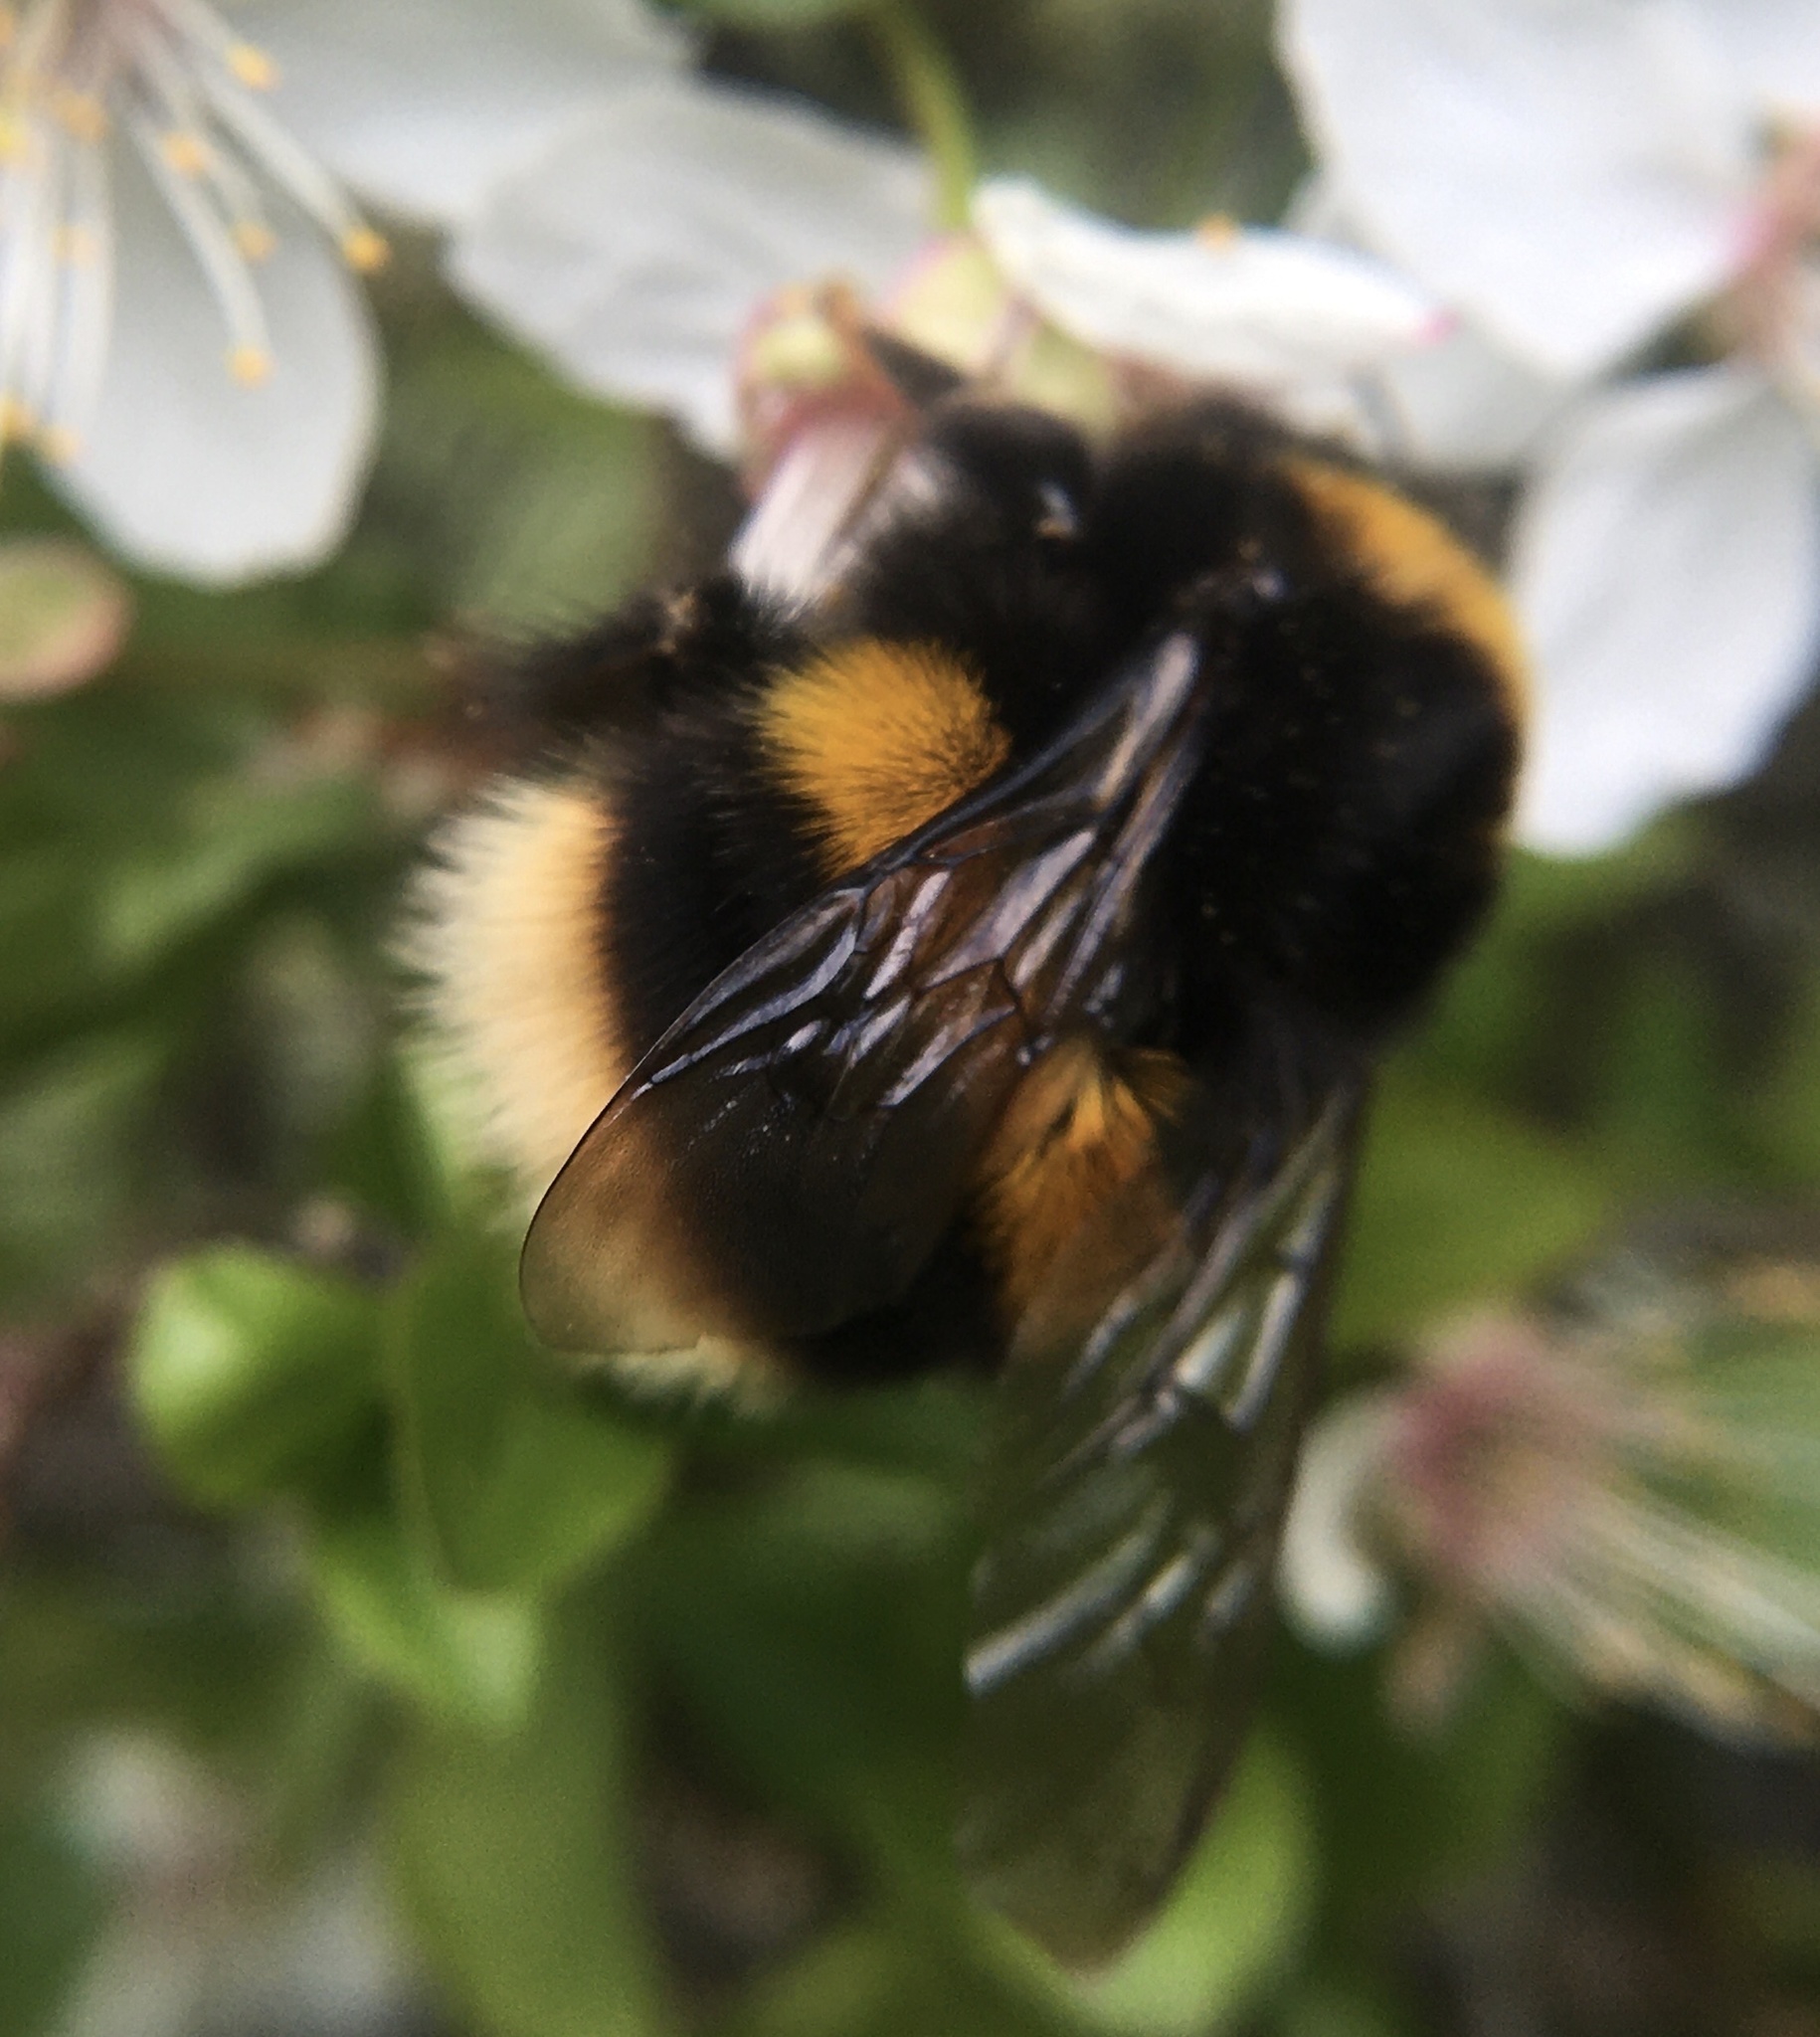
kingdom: Animalia
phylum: Arthropoda
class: Insecta
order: Hymenoptera
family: Apidae
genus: Bombus
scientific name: Bombus terrestris
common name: Buff-tailed bumblebee
